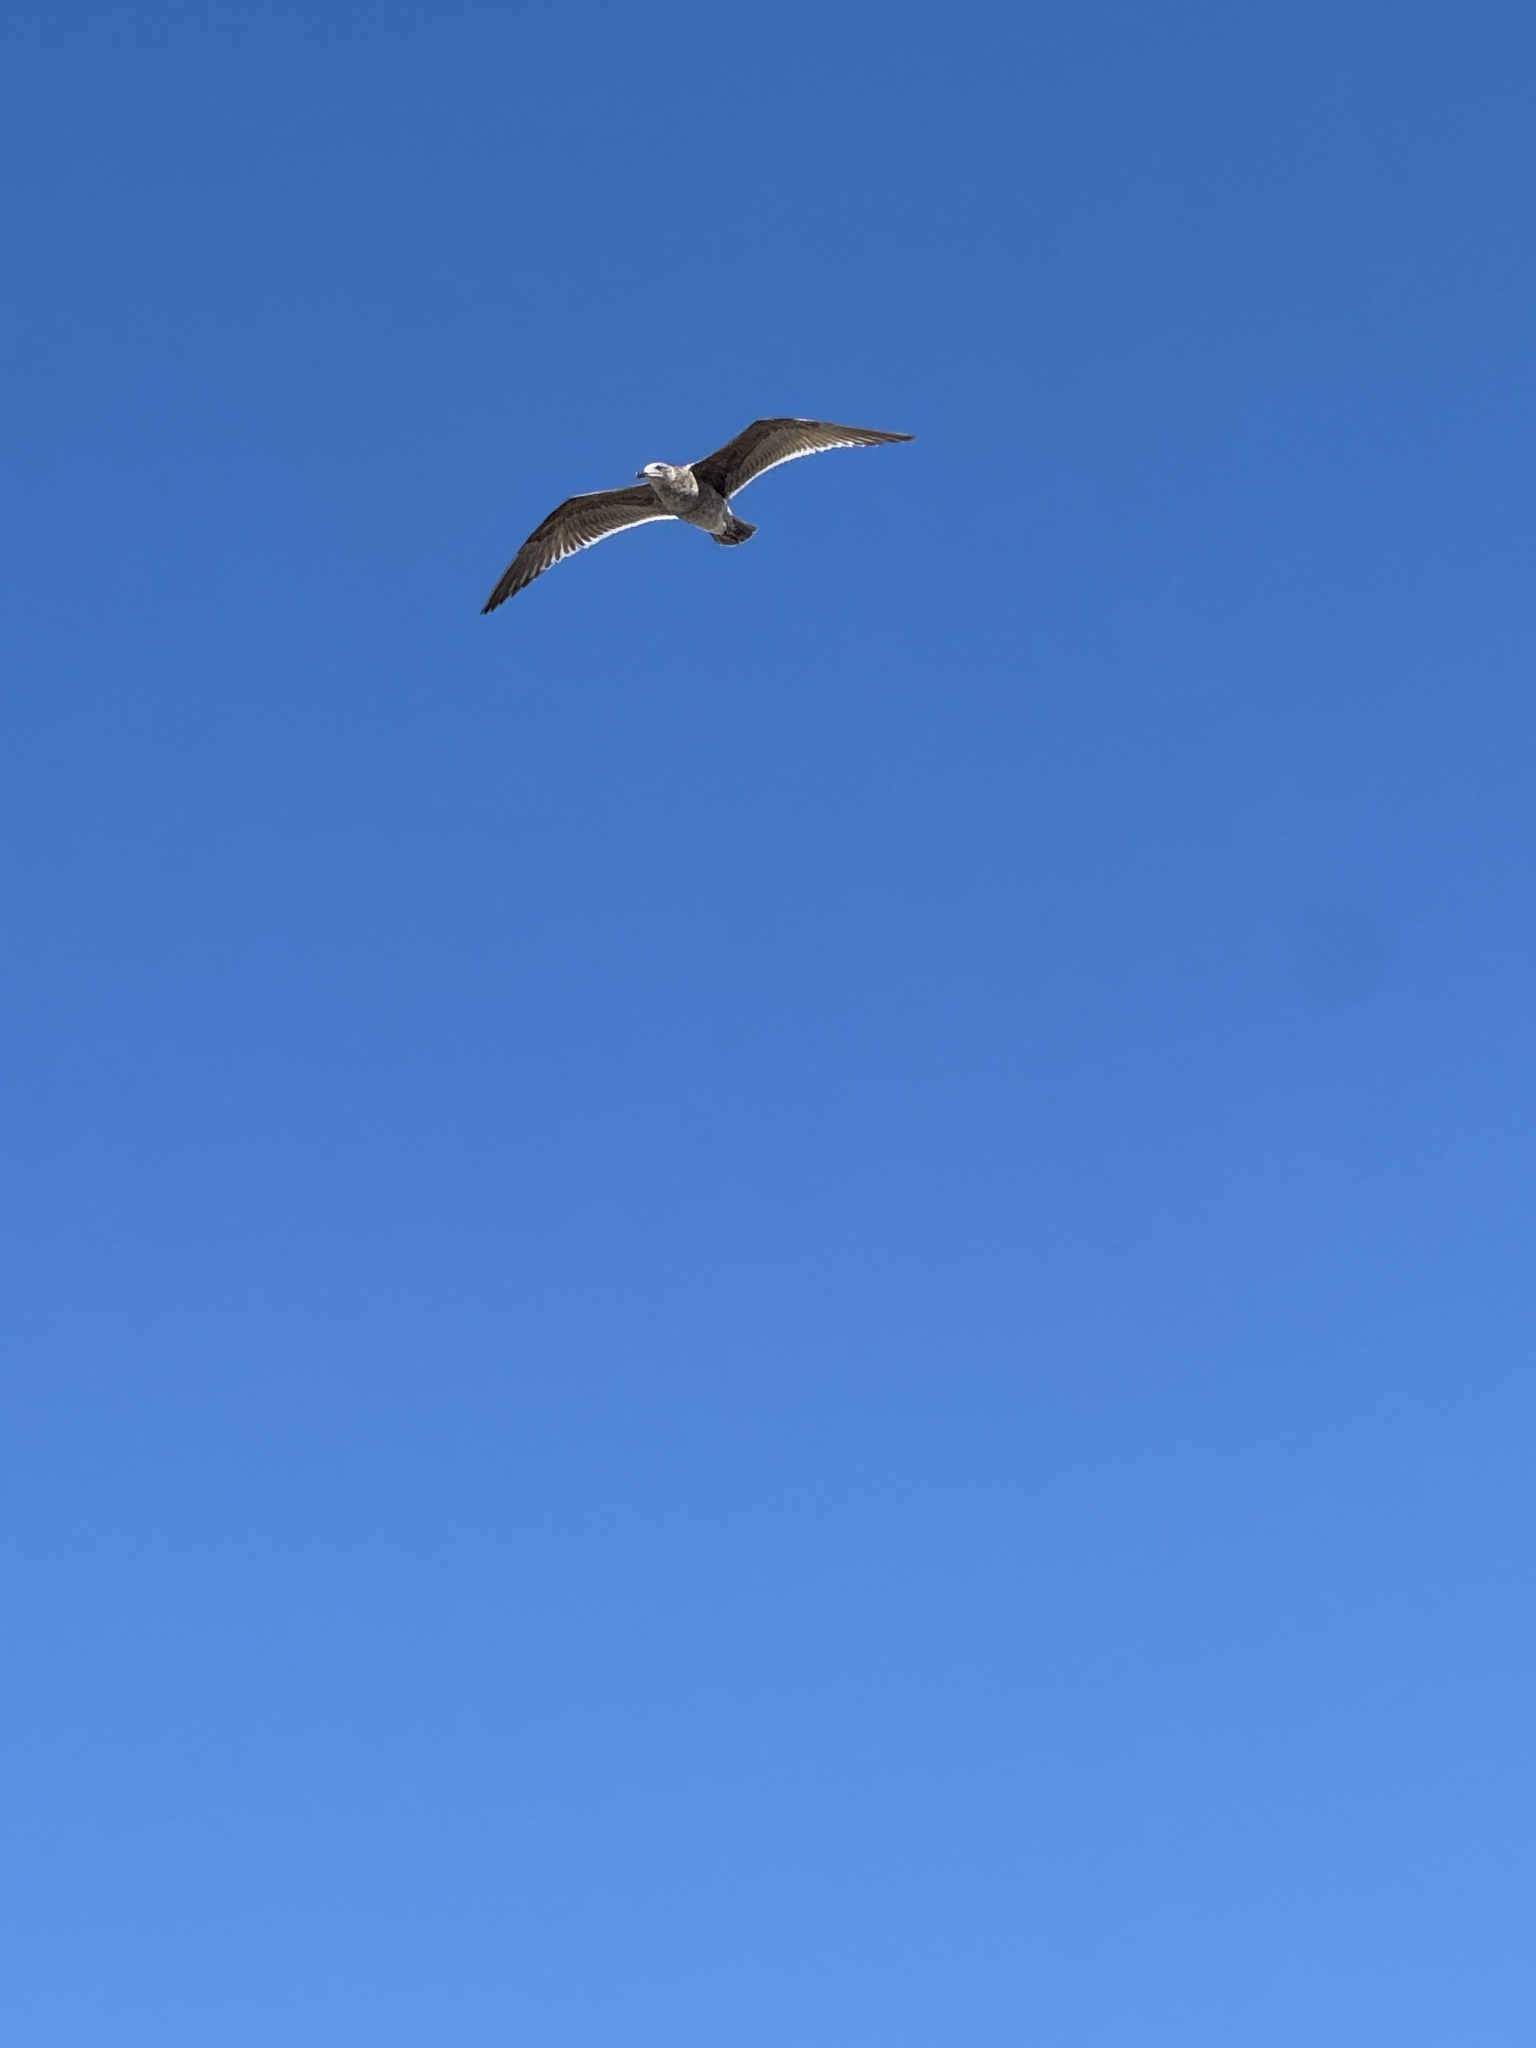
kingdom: Animalia
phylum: Chordata
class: Aves
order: Charadriiformes
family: Laridae
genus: Larus
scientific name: Larus occidentalis
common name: Western gull
